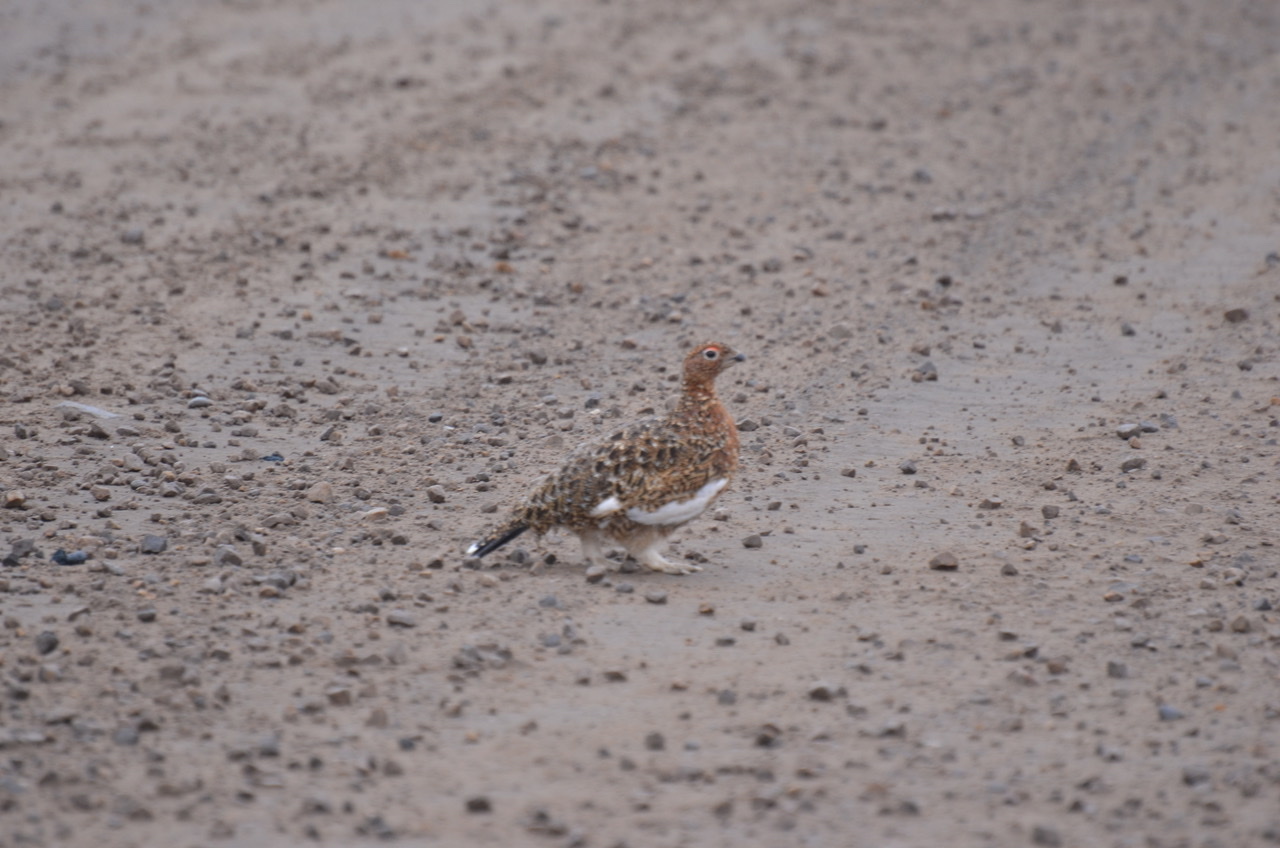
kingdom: Animalia
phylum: Chordata
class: Aves
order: Galliformes
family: Phasianidae
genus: Lagopus
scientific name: Lagopus lagopus
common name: Willow ptarmigan
